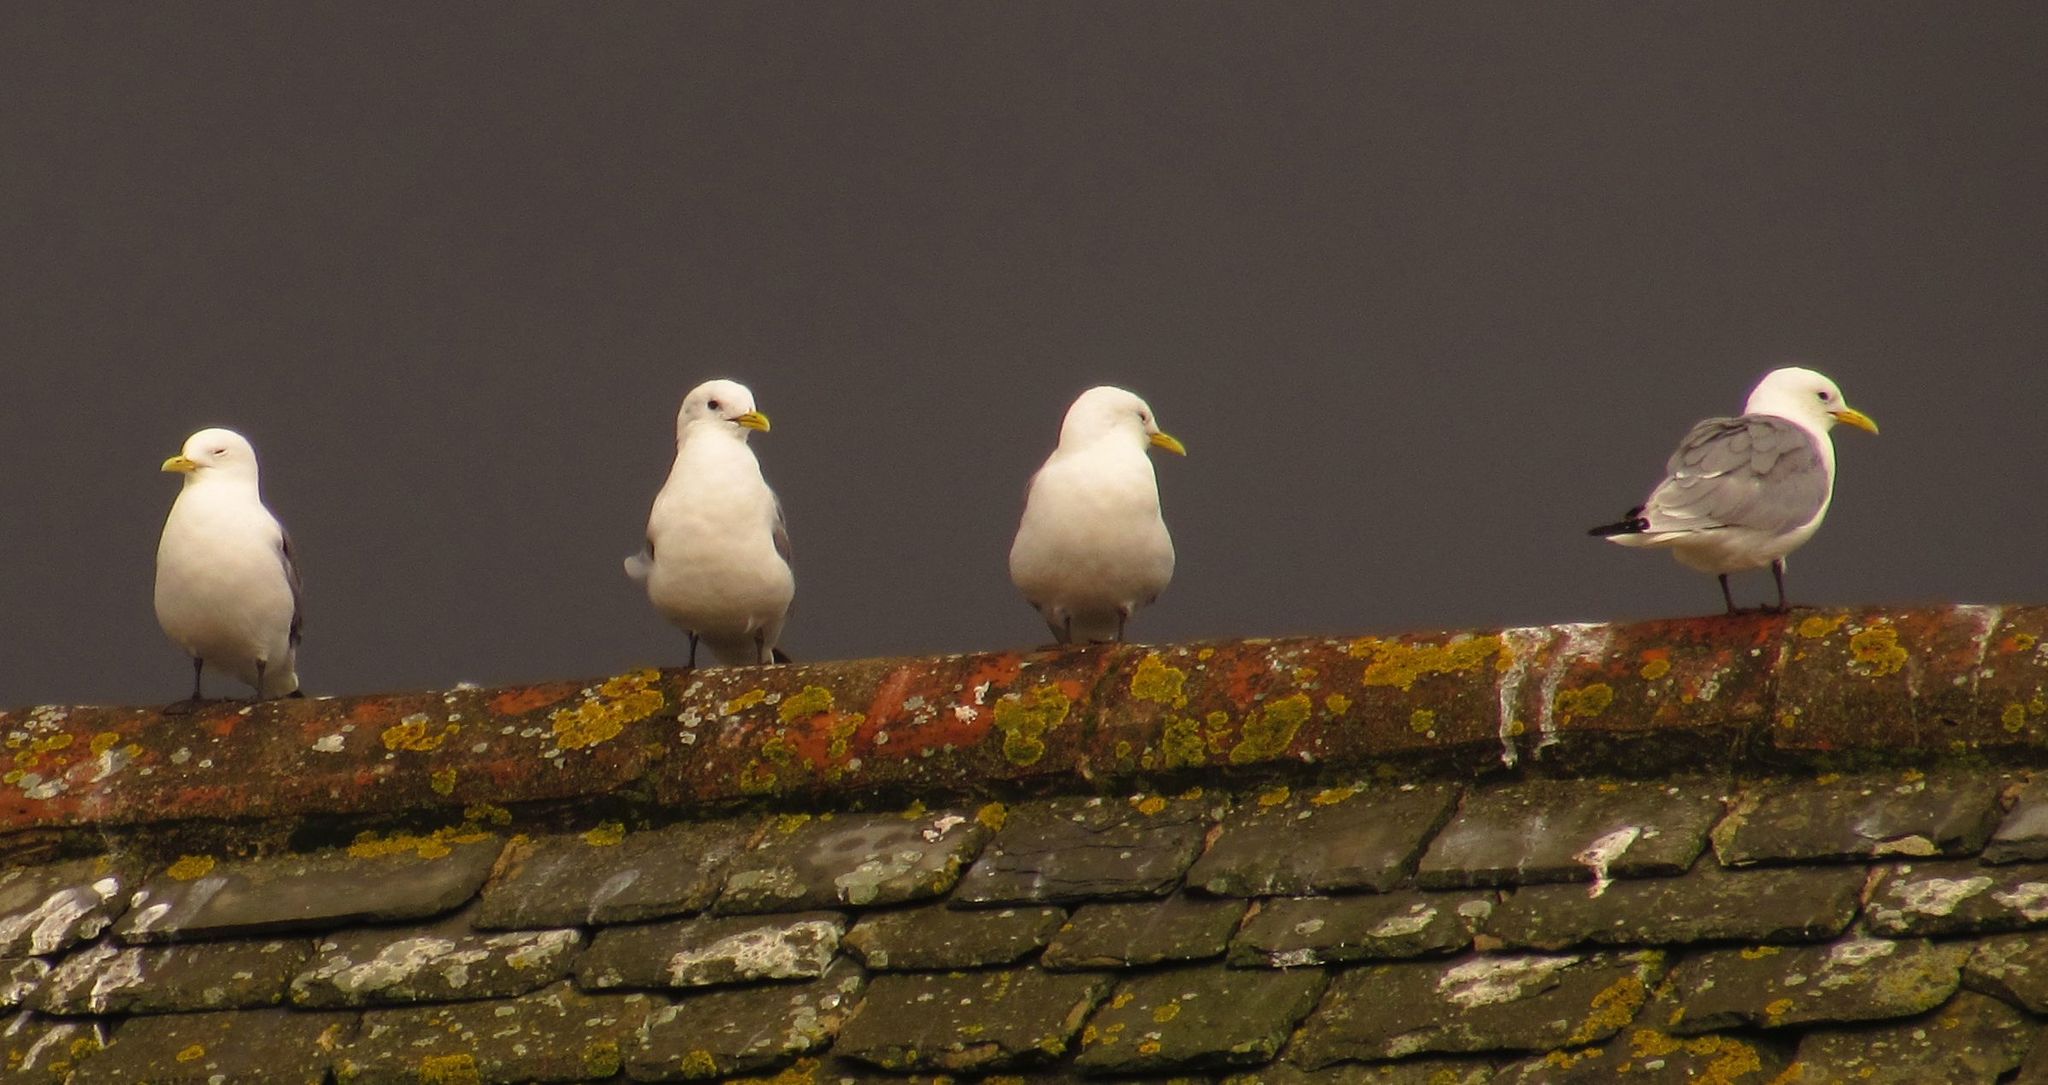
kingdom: Animalia
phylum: Chordata
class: Aves
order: Charadriiformes
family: Laridae
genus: Rissa
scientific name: Rissa tridactyla
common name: Black-legged kittiwake
